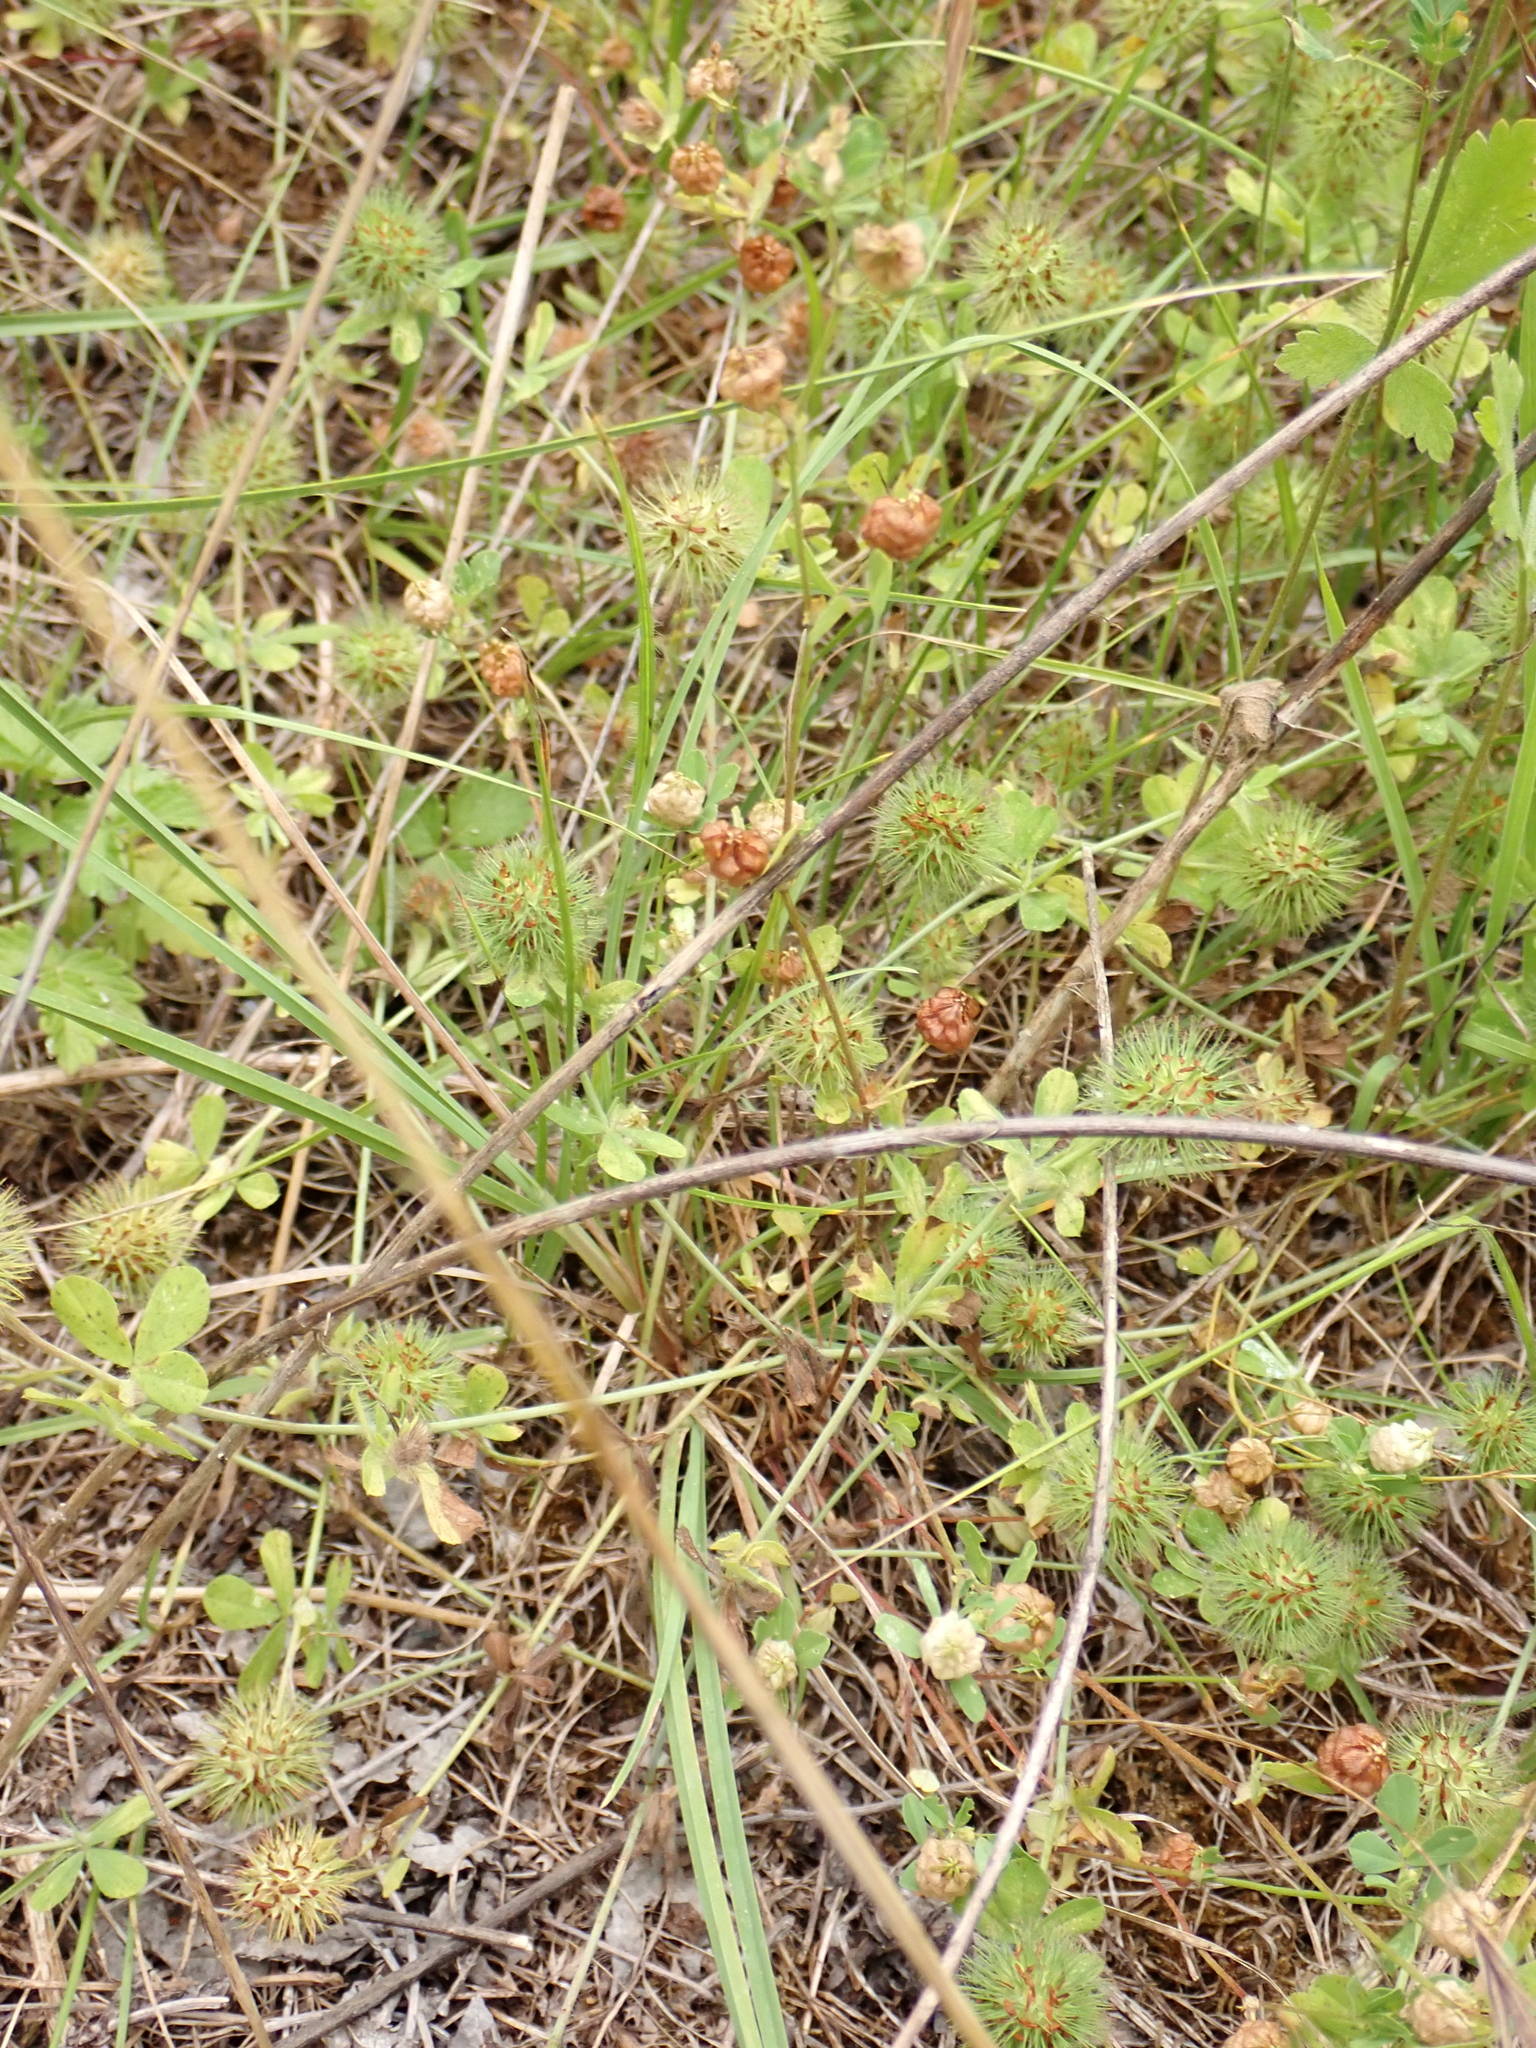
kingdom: Plantae
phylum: Tracheophyta
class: Magnoliopsida
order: Fabales
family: Fabaceae
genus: Trifolium
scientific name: Trifolium lappaceum
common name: Bur clover
